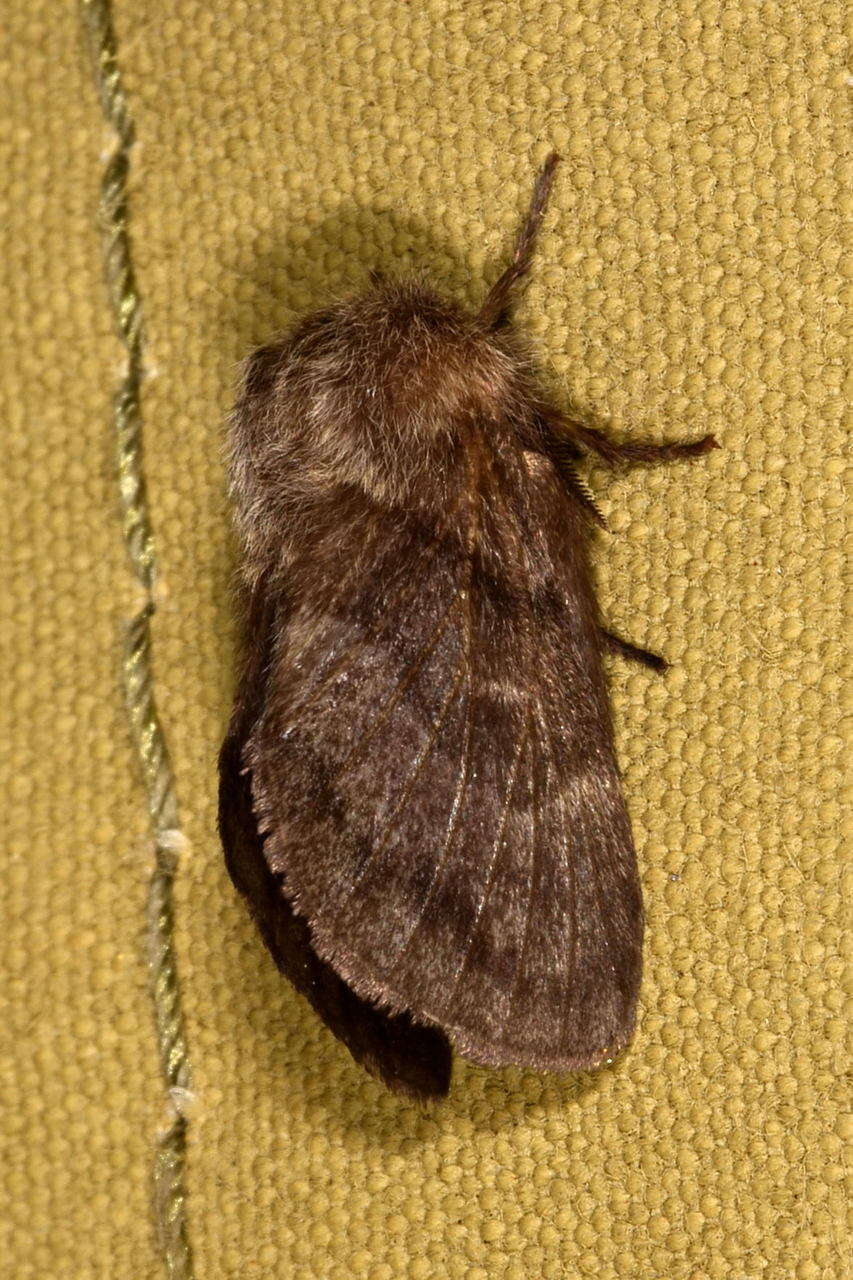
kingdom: Animalia
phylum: Arthropoda
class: Insecta
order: Lepidoptera
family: Lasiocampidae
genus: Pernattia
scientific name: Pernattia pusilla
